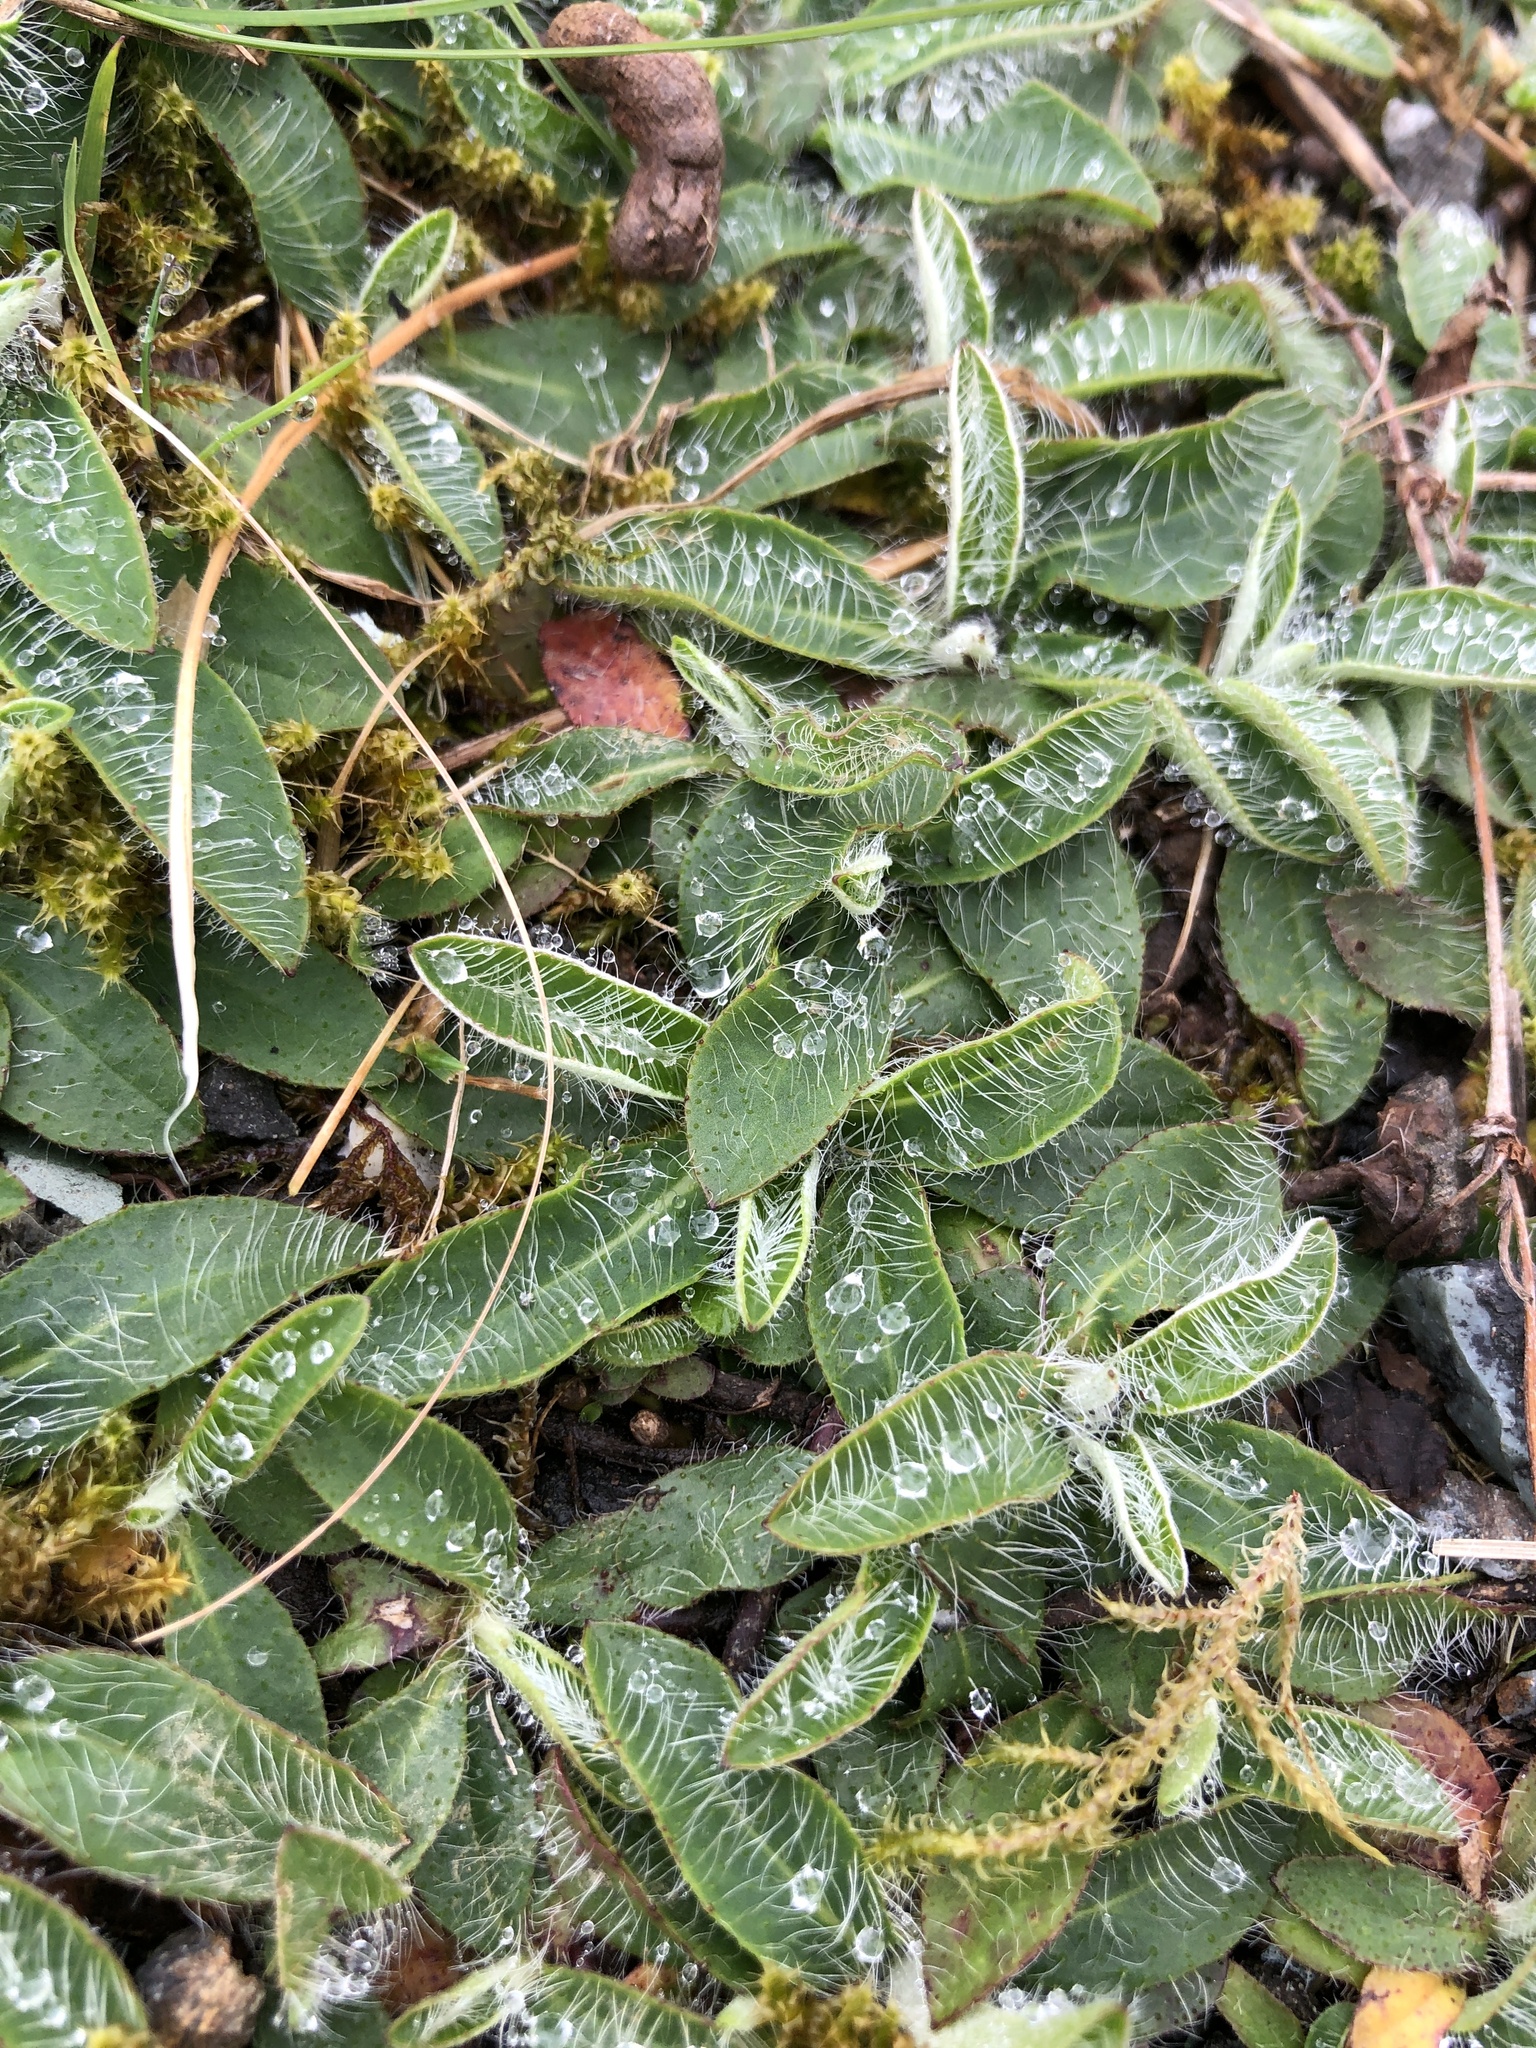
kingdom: Plantae
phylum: Tracheophyta
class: Magnoliopsida
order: Asterales
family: Asteraceae
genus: Pilosella
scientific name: Pilosella officinarum
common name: Mouse-ear hawkweed
